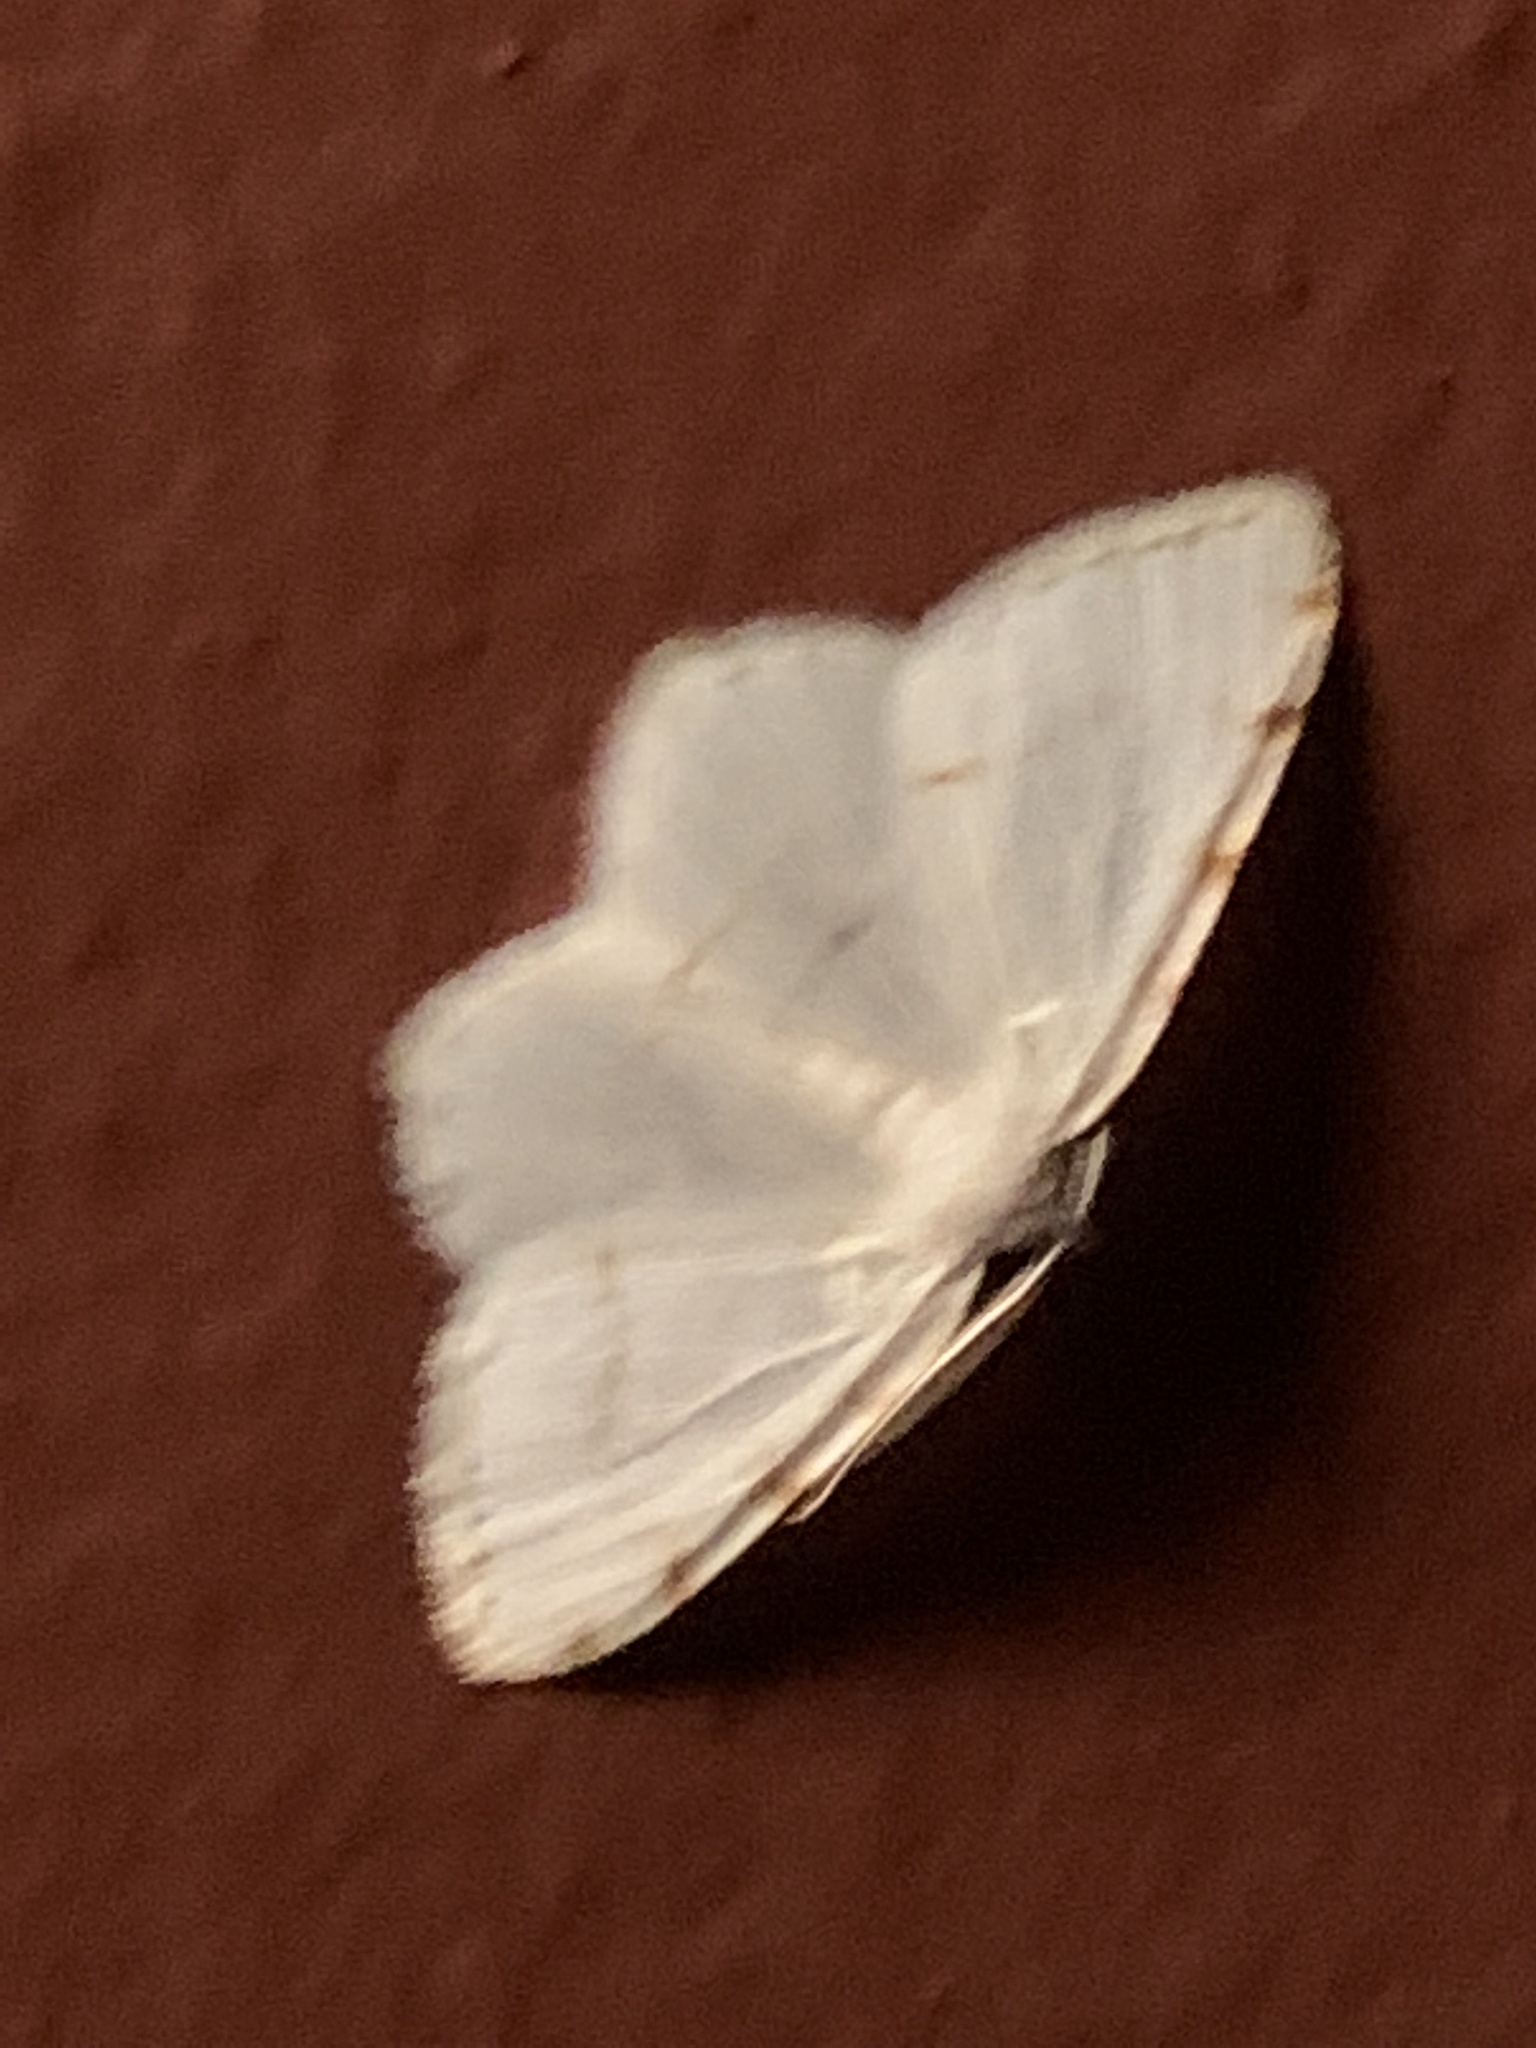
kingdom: Animalia
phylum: Arthropoda
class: Insecta
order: Lepidoptera
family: Geometridae
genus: Macaria
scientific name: Macaria pustularia
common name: Lesser maple spanworm moth
